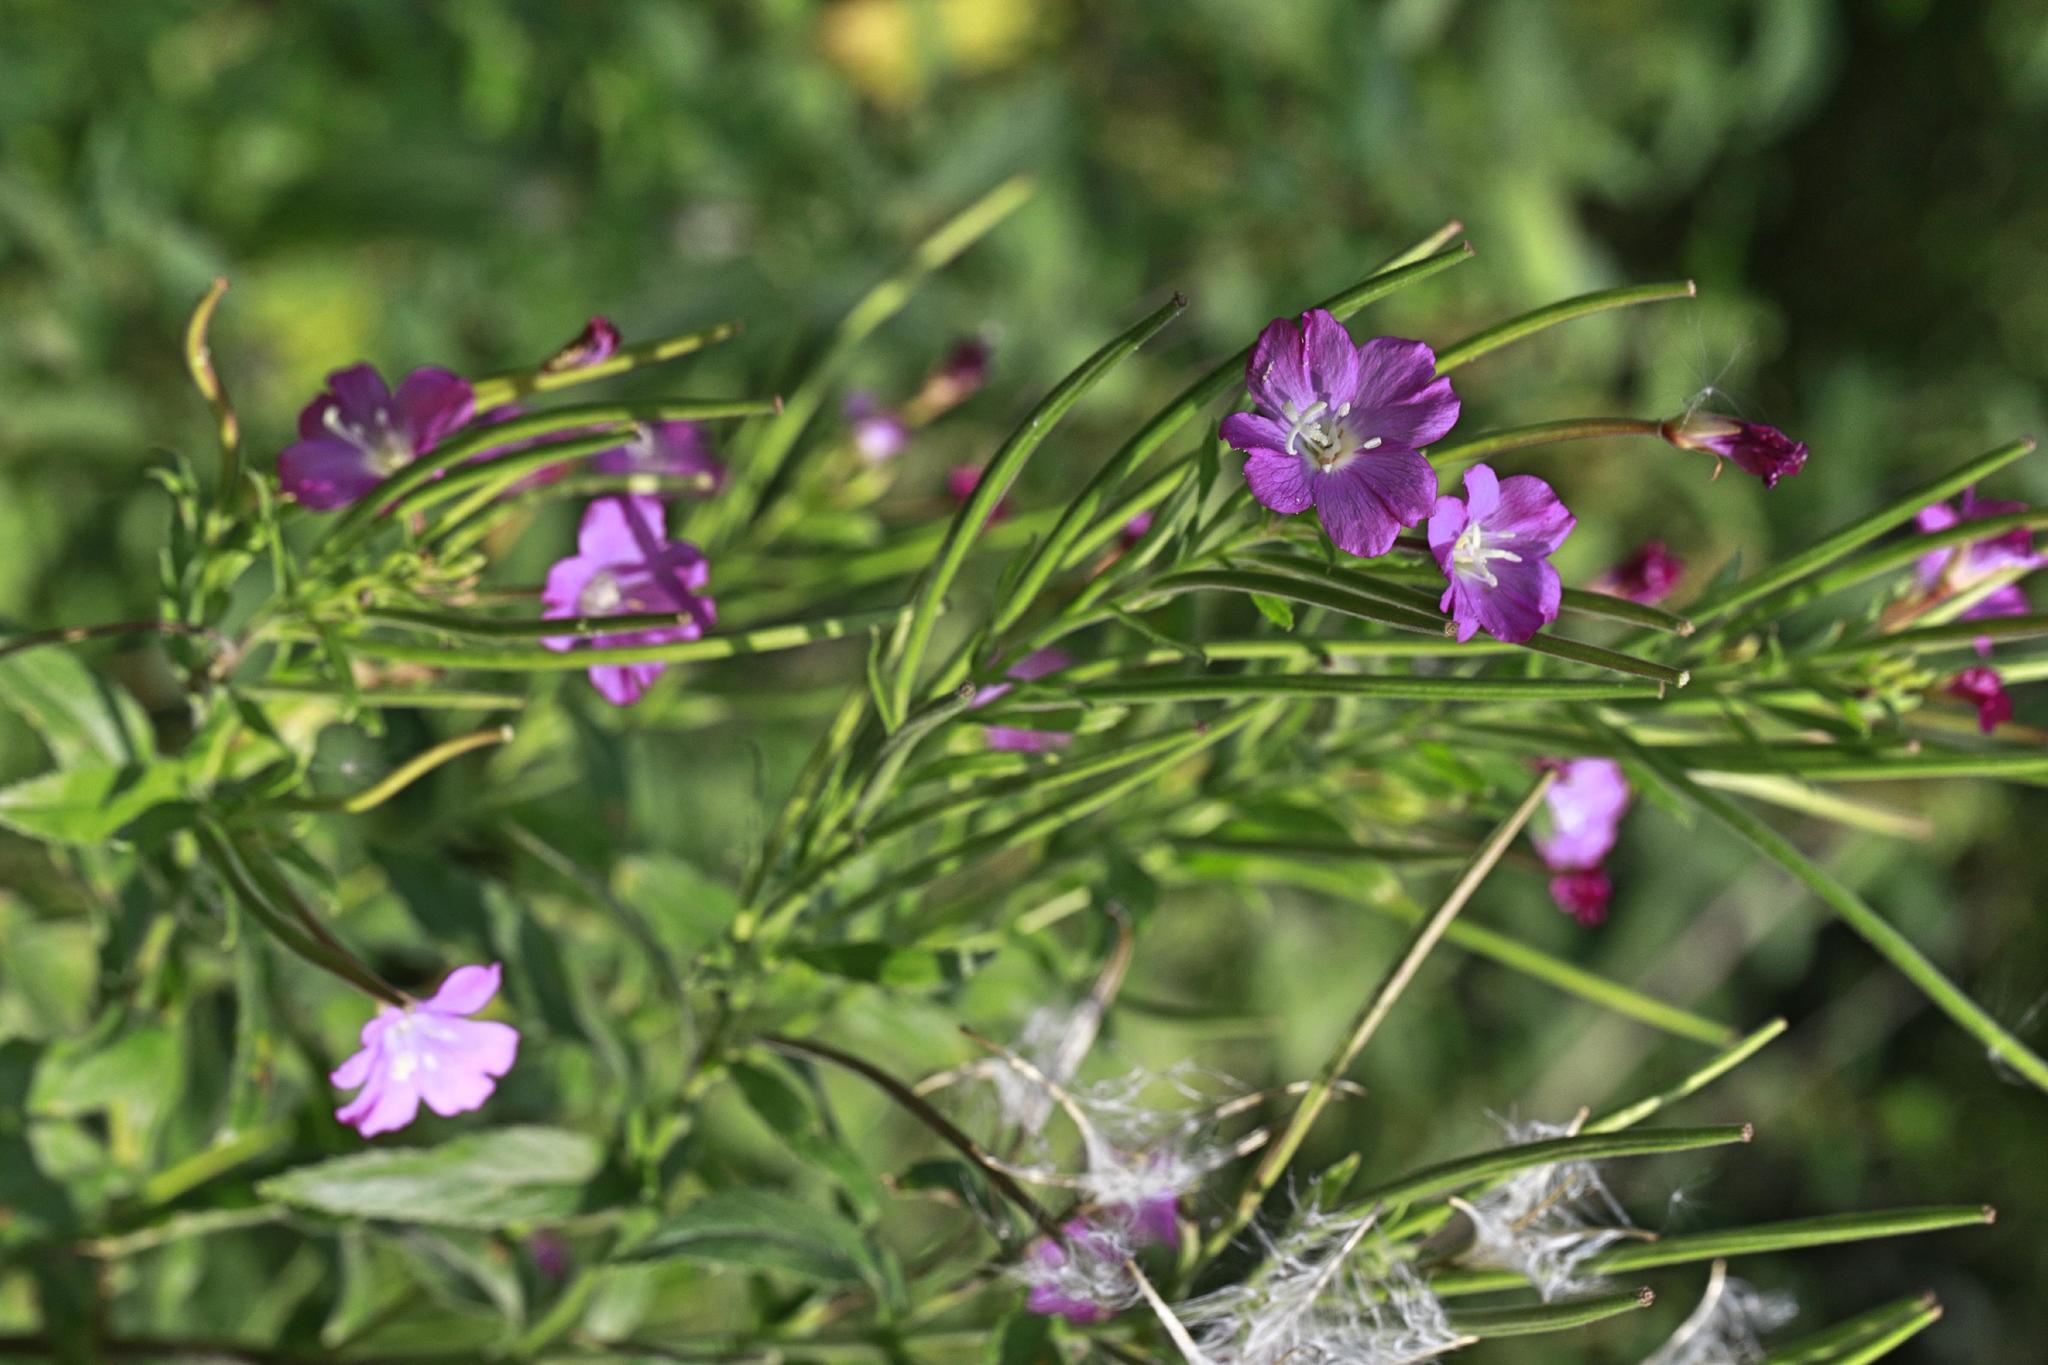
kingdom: Plantae
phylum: Tracheophyta
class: Magnoliopsida
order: Myrtales
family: Onagraceae
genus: Epilobium
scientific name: Epilobium hirsutum
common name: Great willowherb
